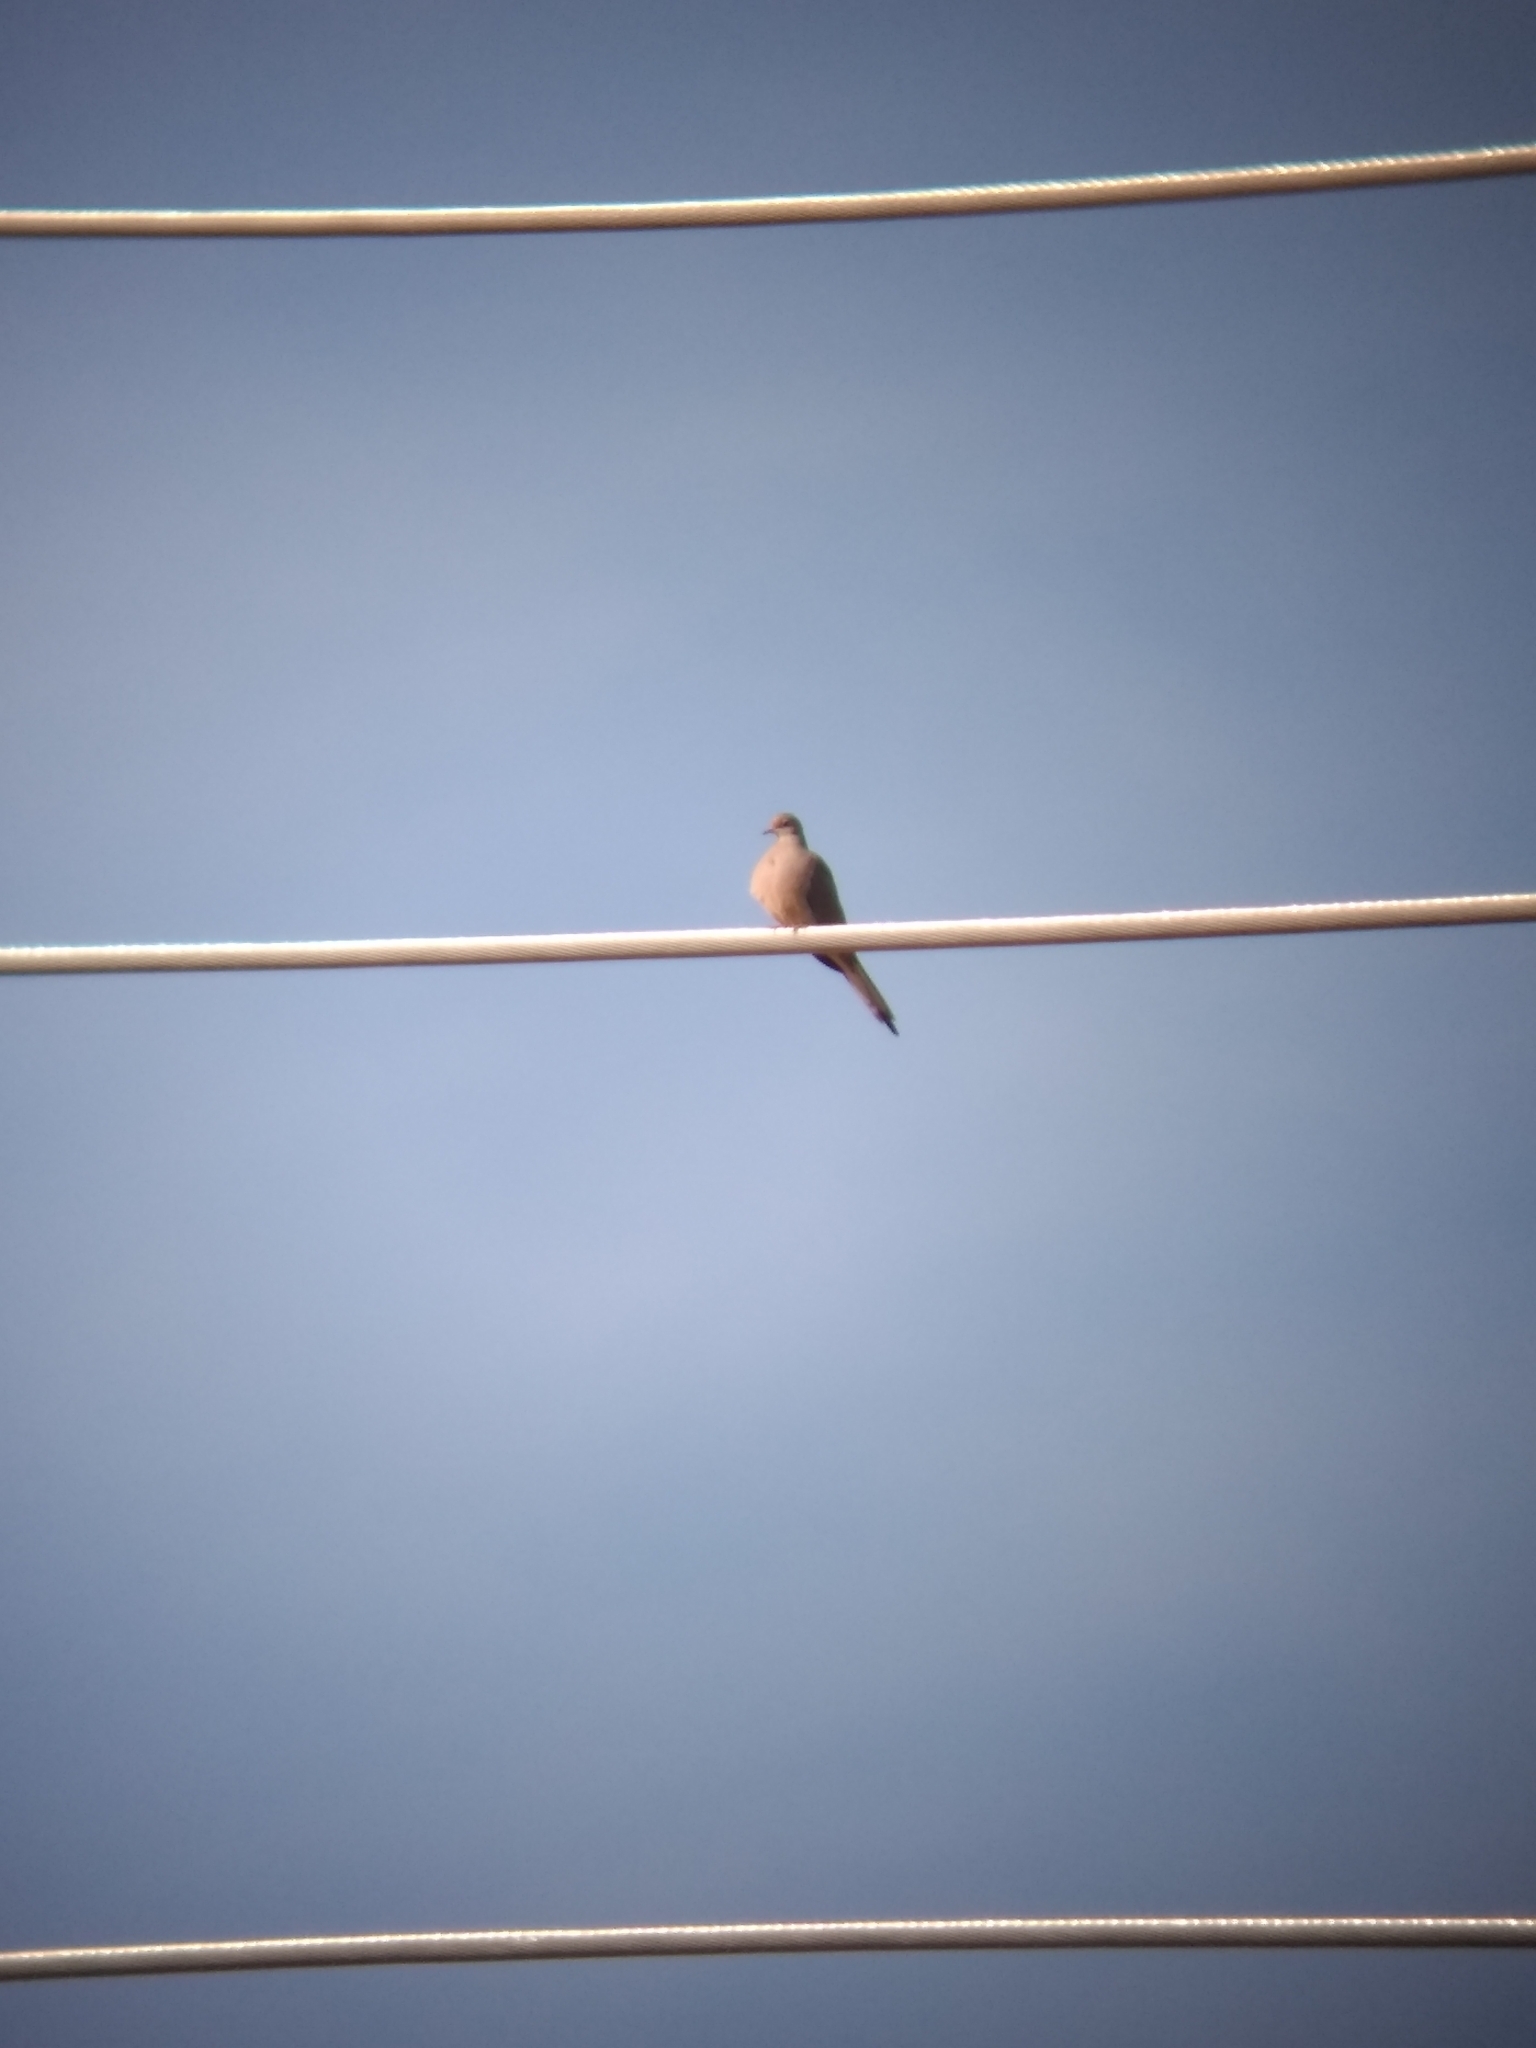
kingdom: Animalia
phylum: Chordata
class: Aves
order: Columbiformes
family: Columbidae
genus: Zenaida
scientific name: Zenaida macroura
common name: Mourning dove
